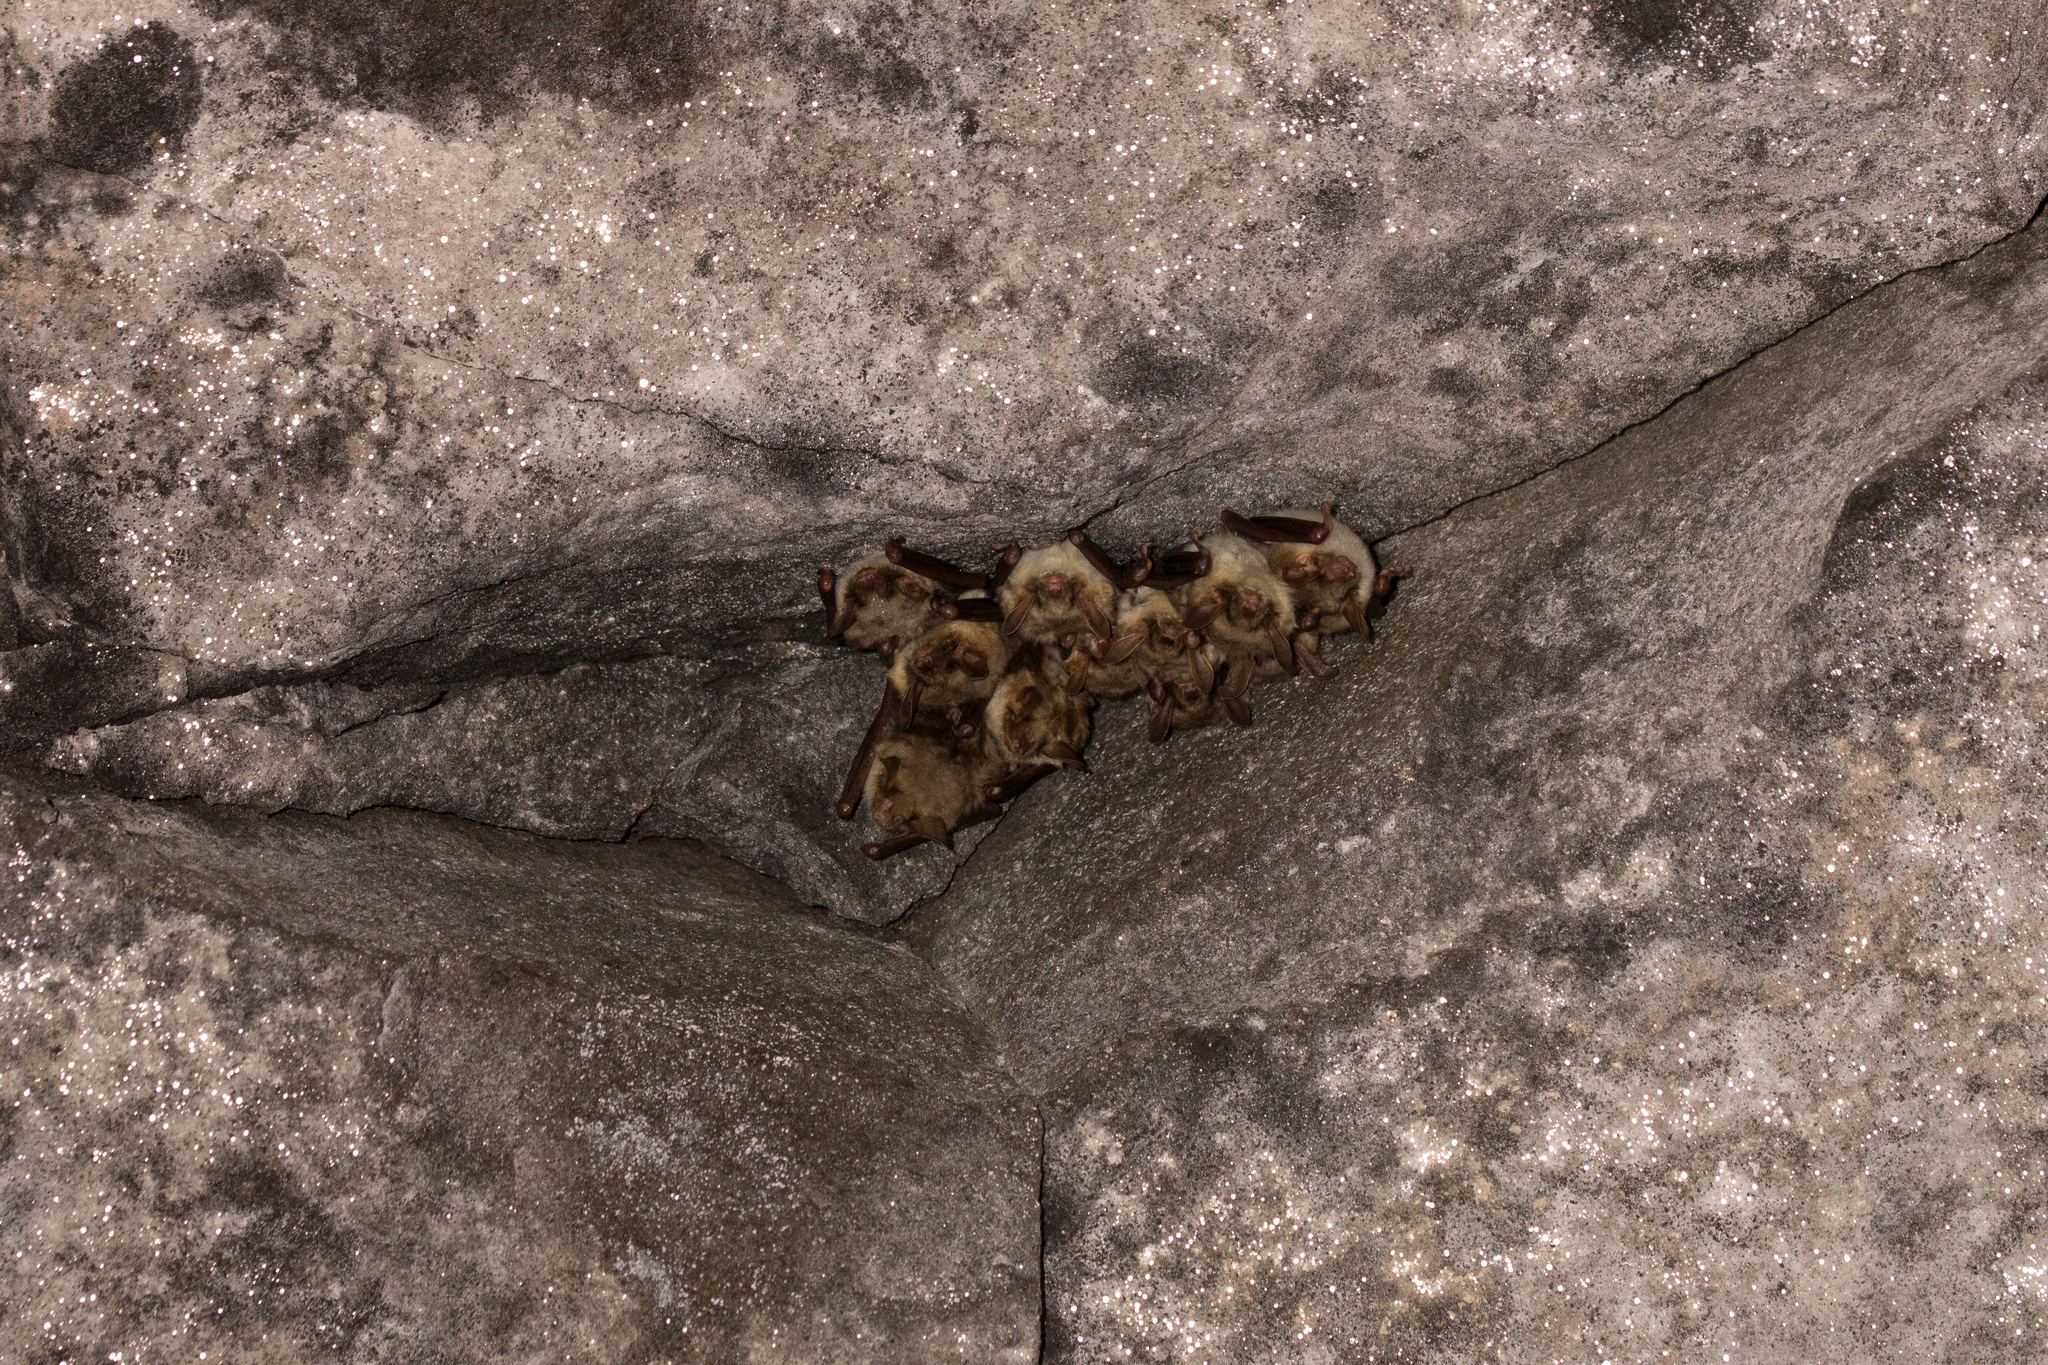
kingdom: Animalia
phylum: Chordata
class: Mammalia
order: Chiroptera
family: Vespertilionidae
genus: Myotis
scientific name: Myotis myotis
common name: Greater mouse-eared bat
